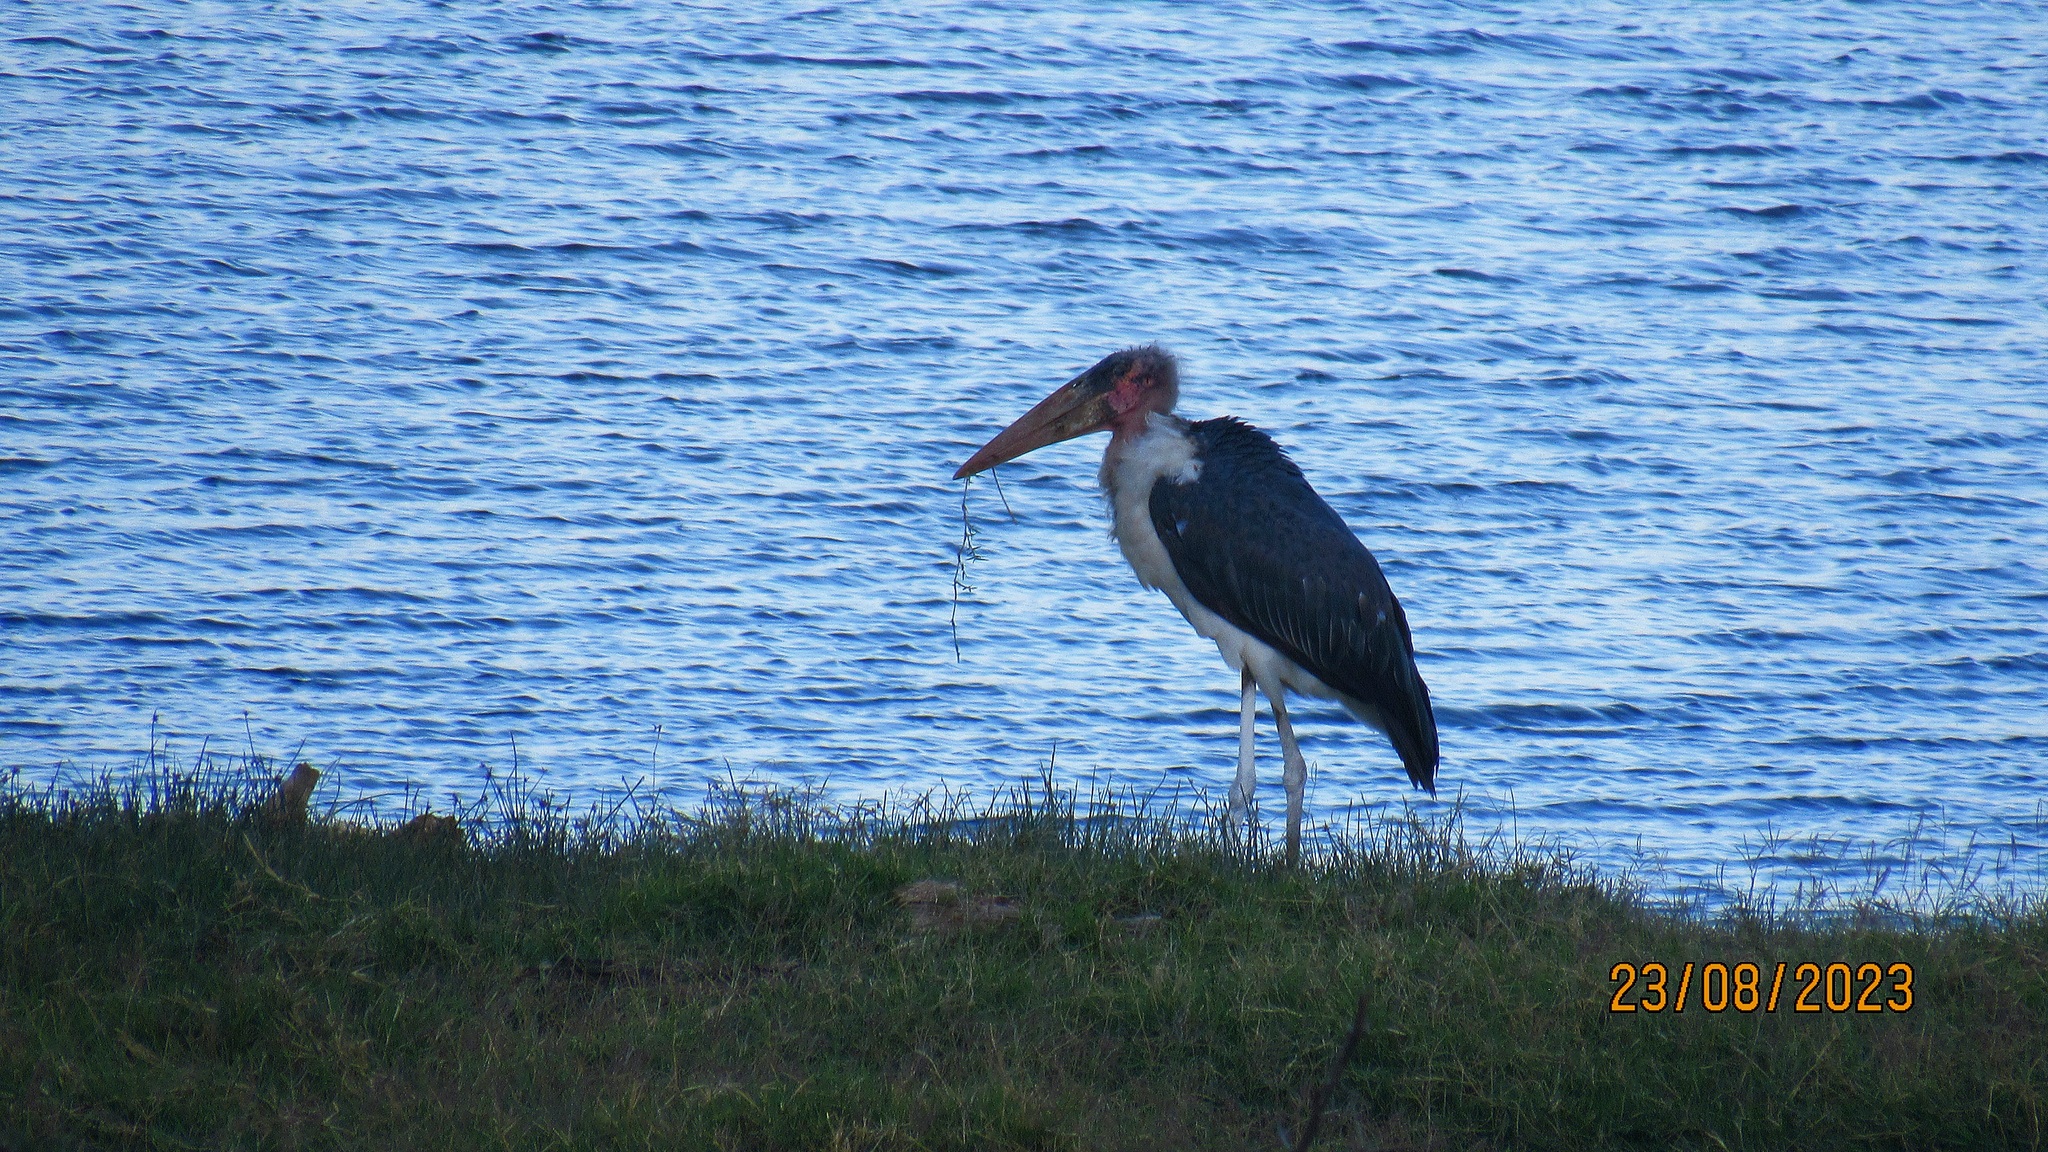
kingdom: Animalia
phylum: Chordata
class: Aves
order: Ciconiiformes
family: Ciconiidae
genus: Leptoptilos
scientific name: Leptoptilos crumenifer
